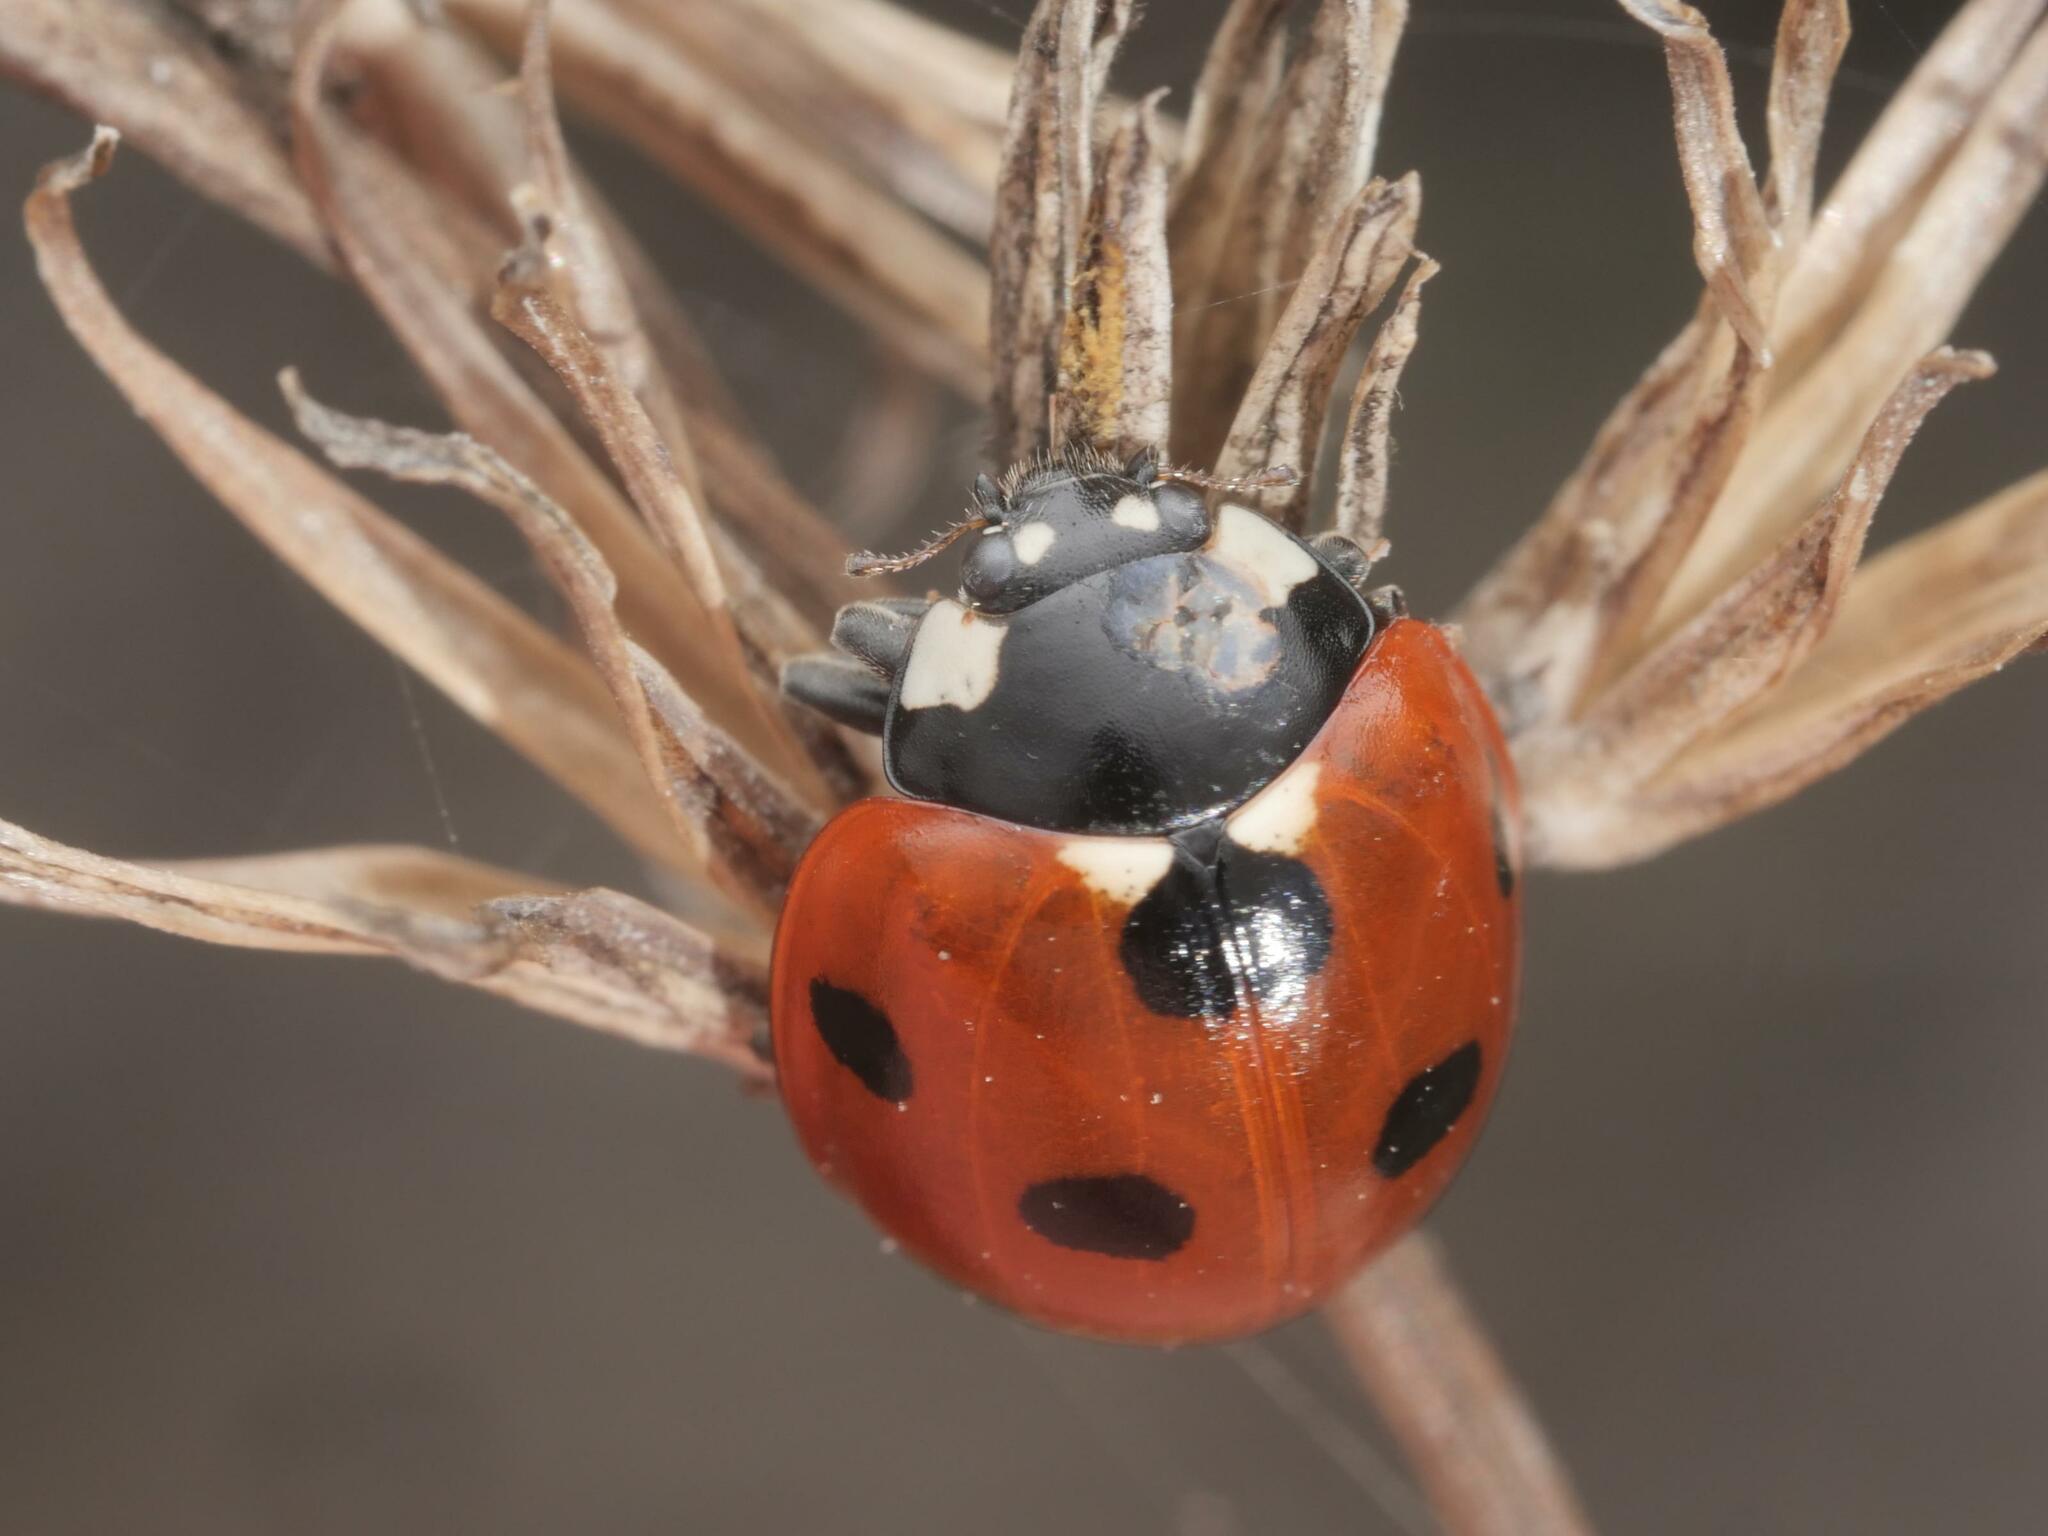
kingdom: Animalia
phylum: Arthropoda
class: Insecta
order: Coleoptera
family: Coccinellidae
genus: Coccinella
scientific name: Coccinella septempunctata
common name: Sevenspotted lady beetle
